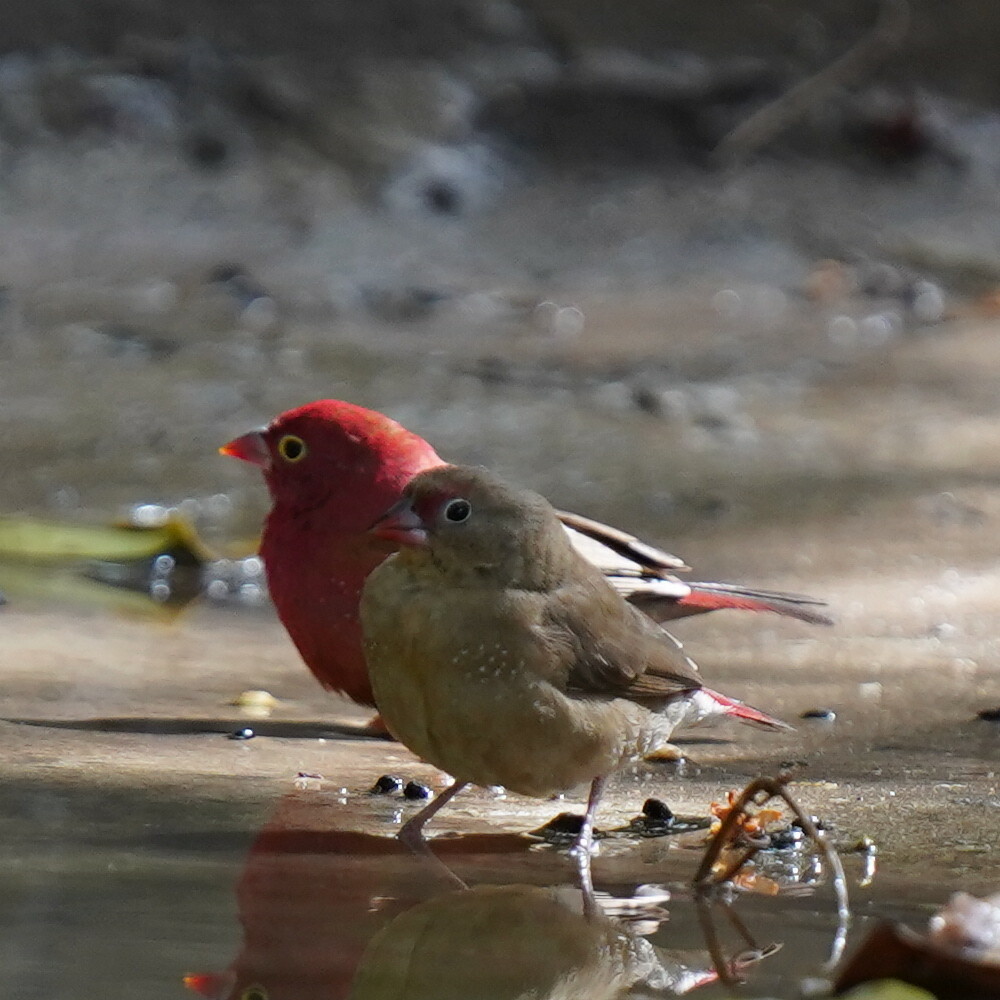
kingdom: Animalia
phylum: Chordata
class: Aves
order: Passeriformes
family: Estrildidae
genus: Lagonosticta
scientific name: Lagonosticta senegala
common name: Red-billed firefinch
